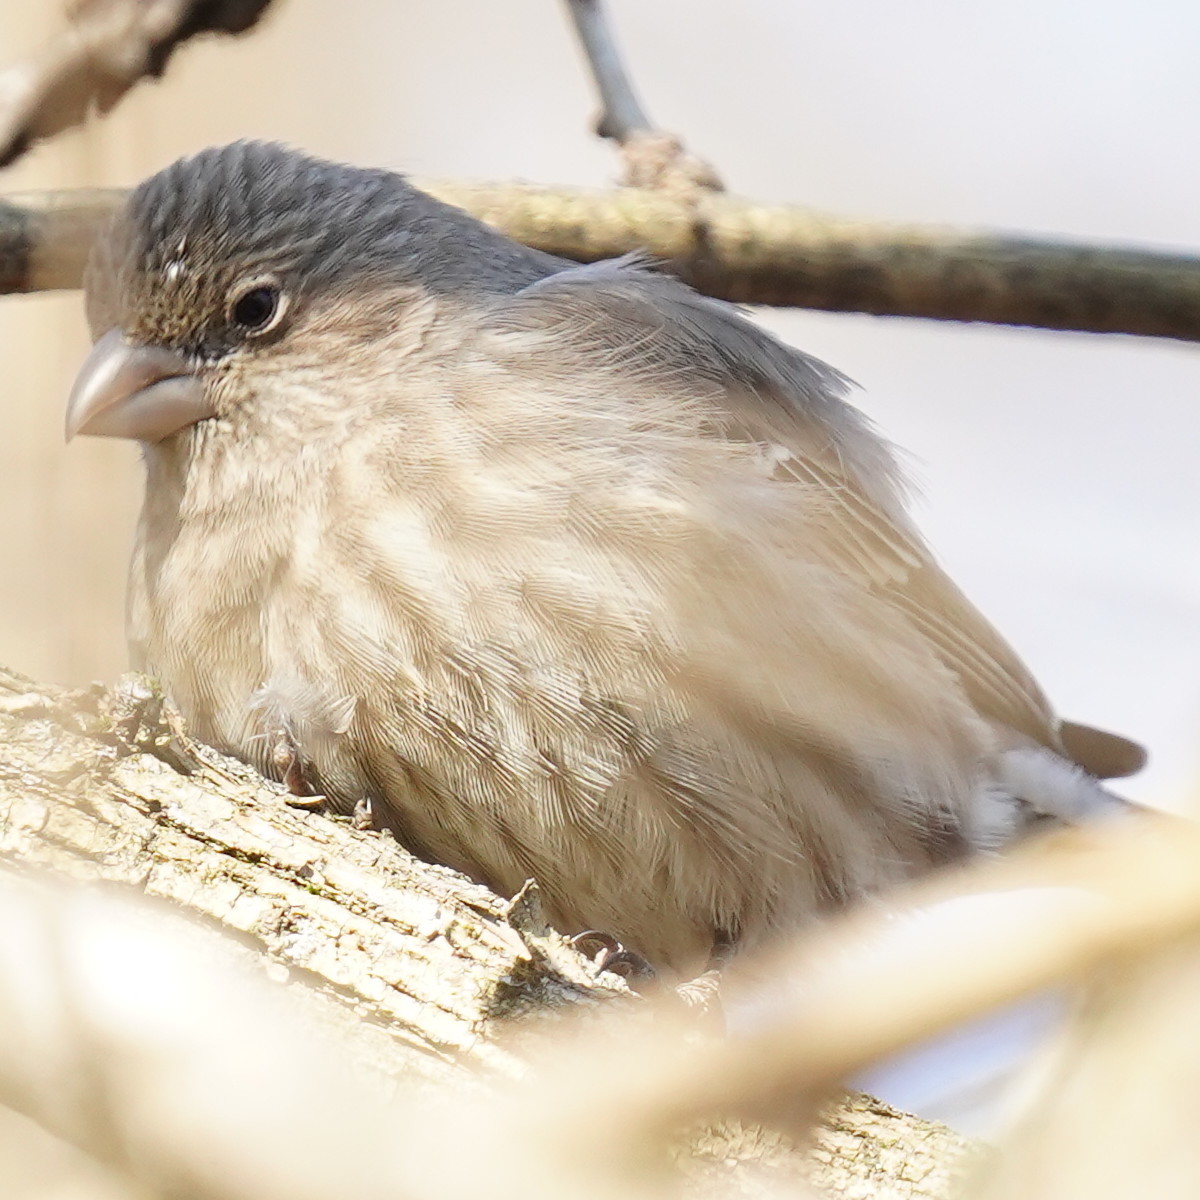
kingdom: Animalia
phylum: Chordata
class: Aves
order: Passeriformes
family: Fringillidae
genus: Haemorhous
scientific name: Haemorhous mexicanus
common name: House finch
